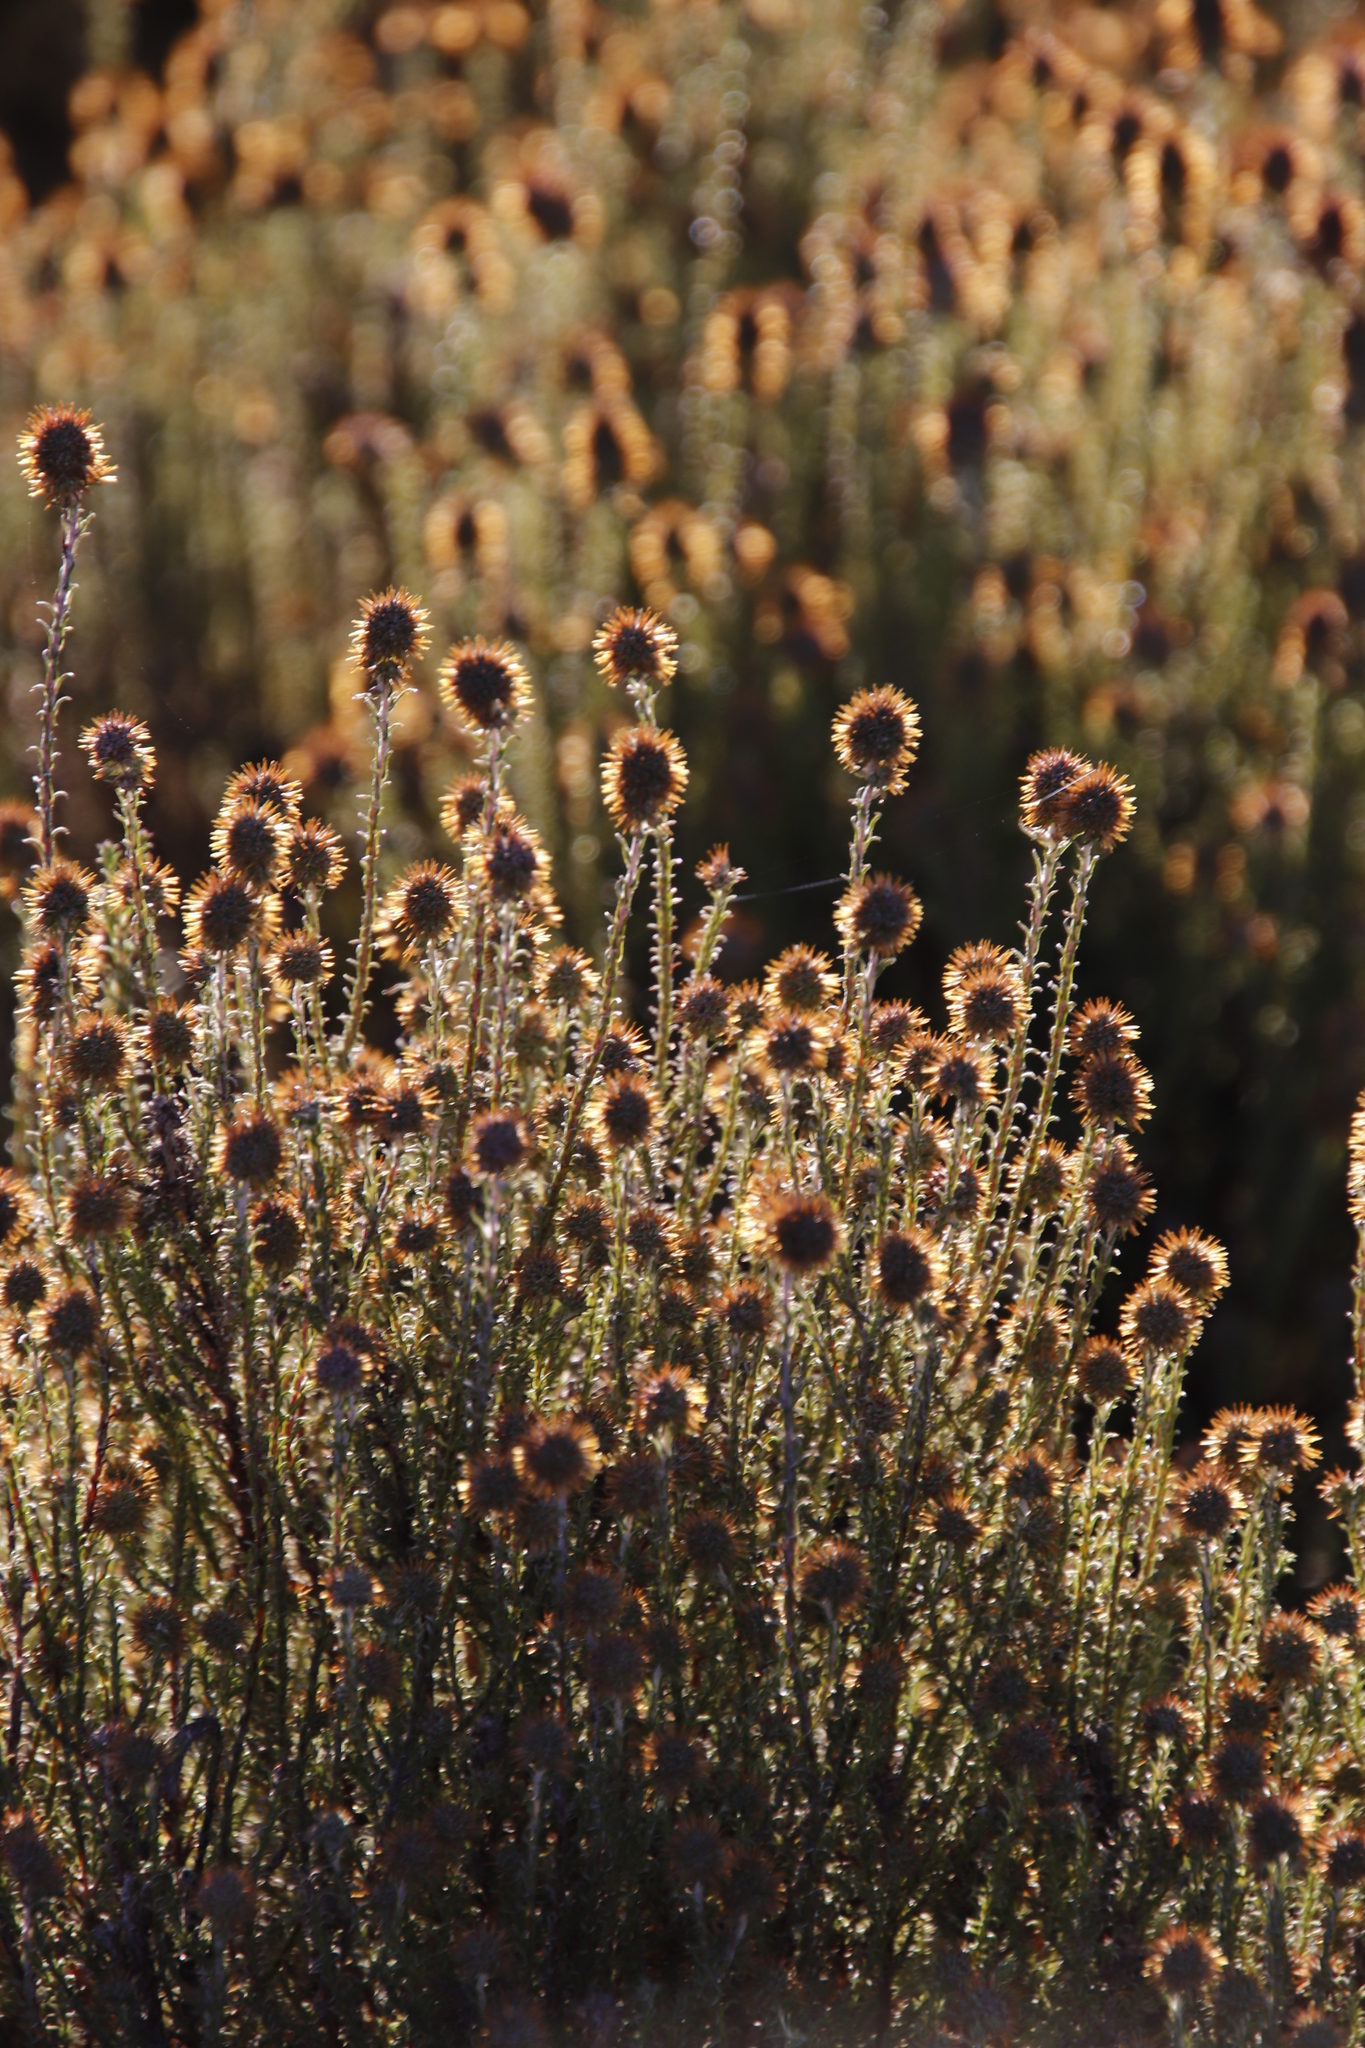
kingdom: Plantae
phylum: Tracheophyta
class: Magnoliopsida
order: Asterales
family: Asteraceae
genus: Seriphium
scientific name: Seriphium cinereum
